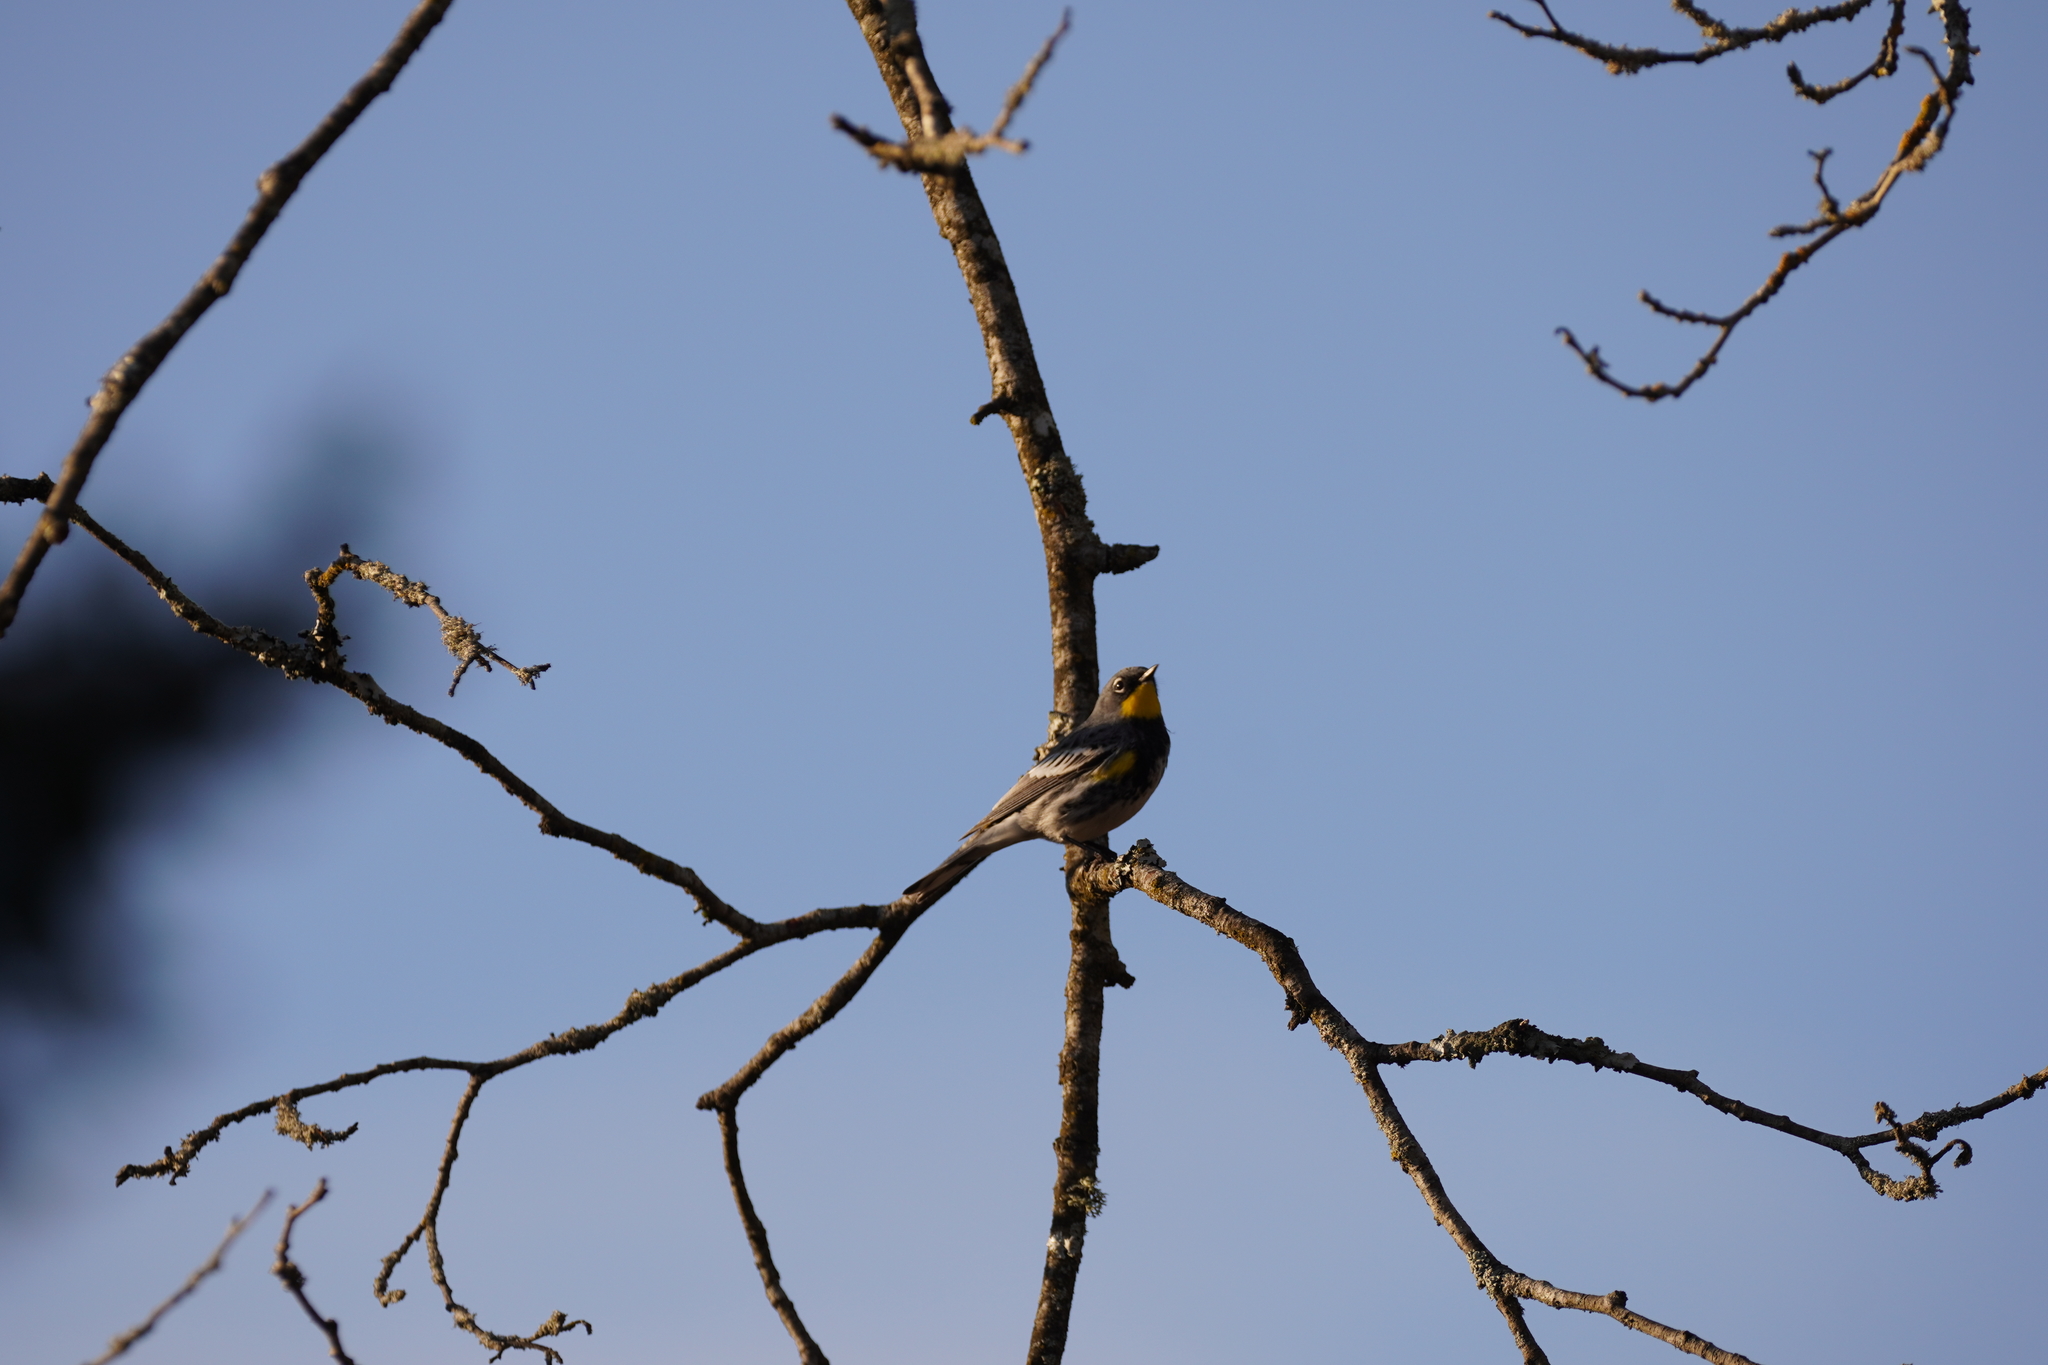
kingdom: Animalia
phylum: Chordata
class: Aves
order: Passeriformes
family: Parulidae
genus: Setophaga
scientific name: Setophaga coronata
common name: Myrtle warbler
